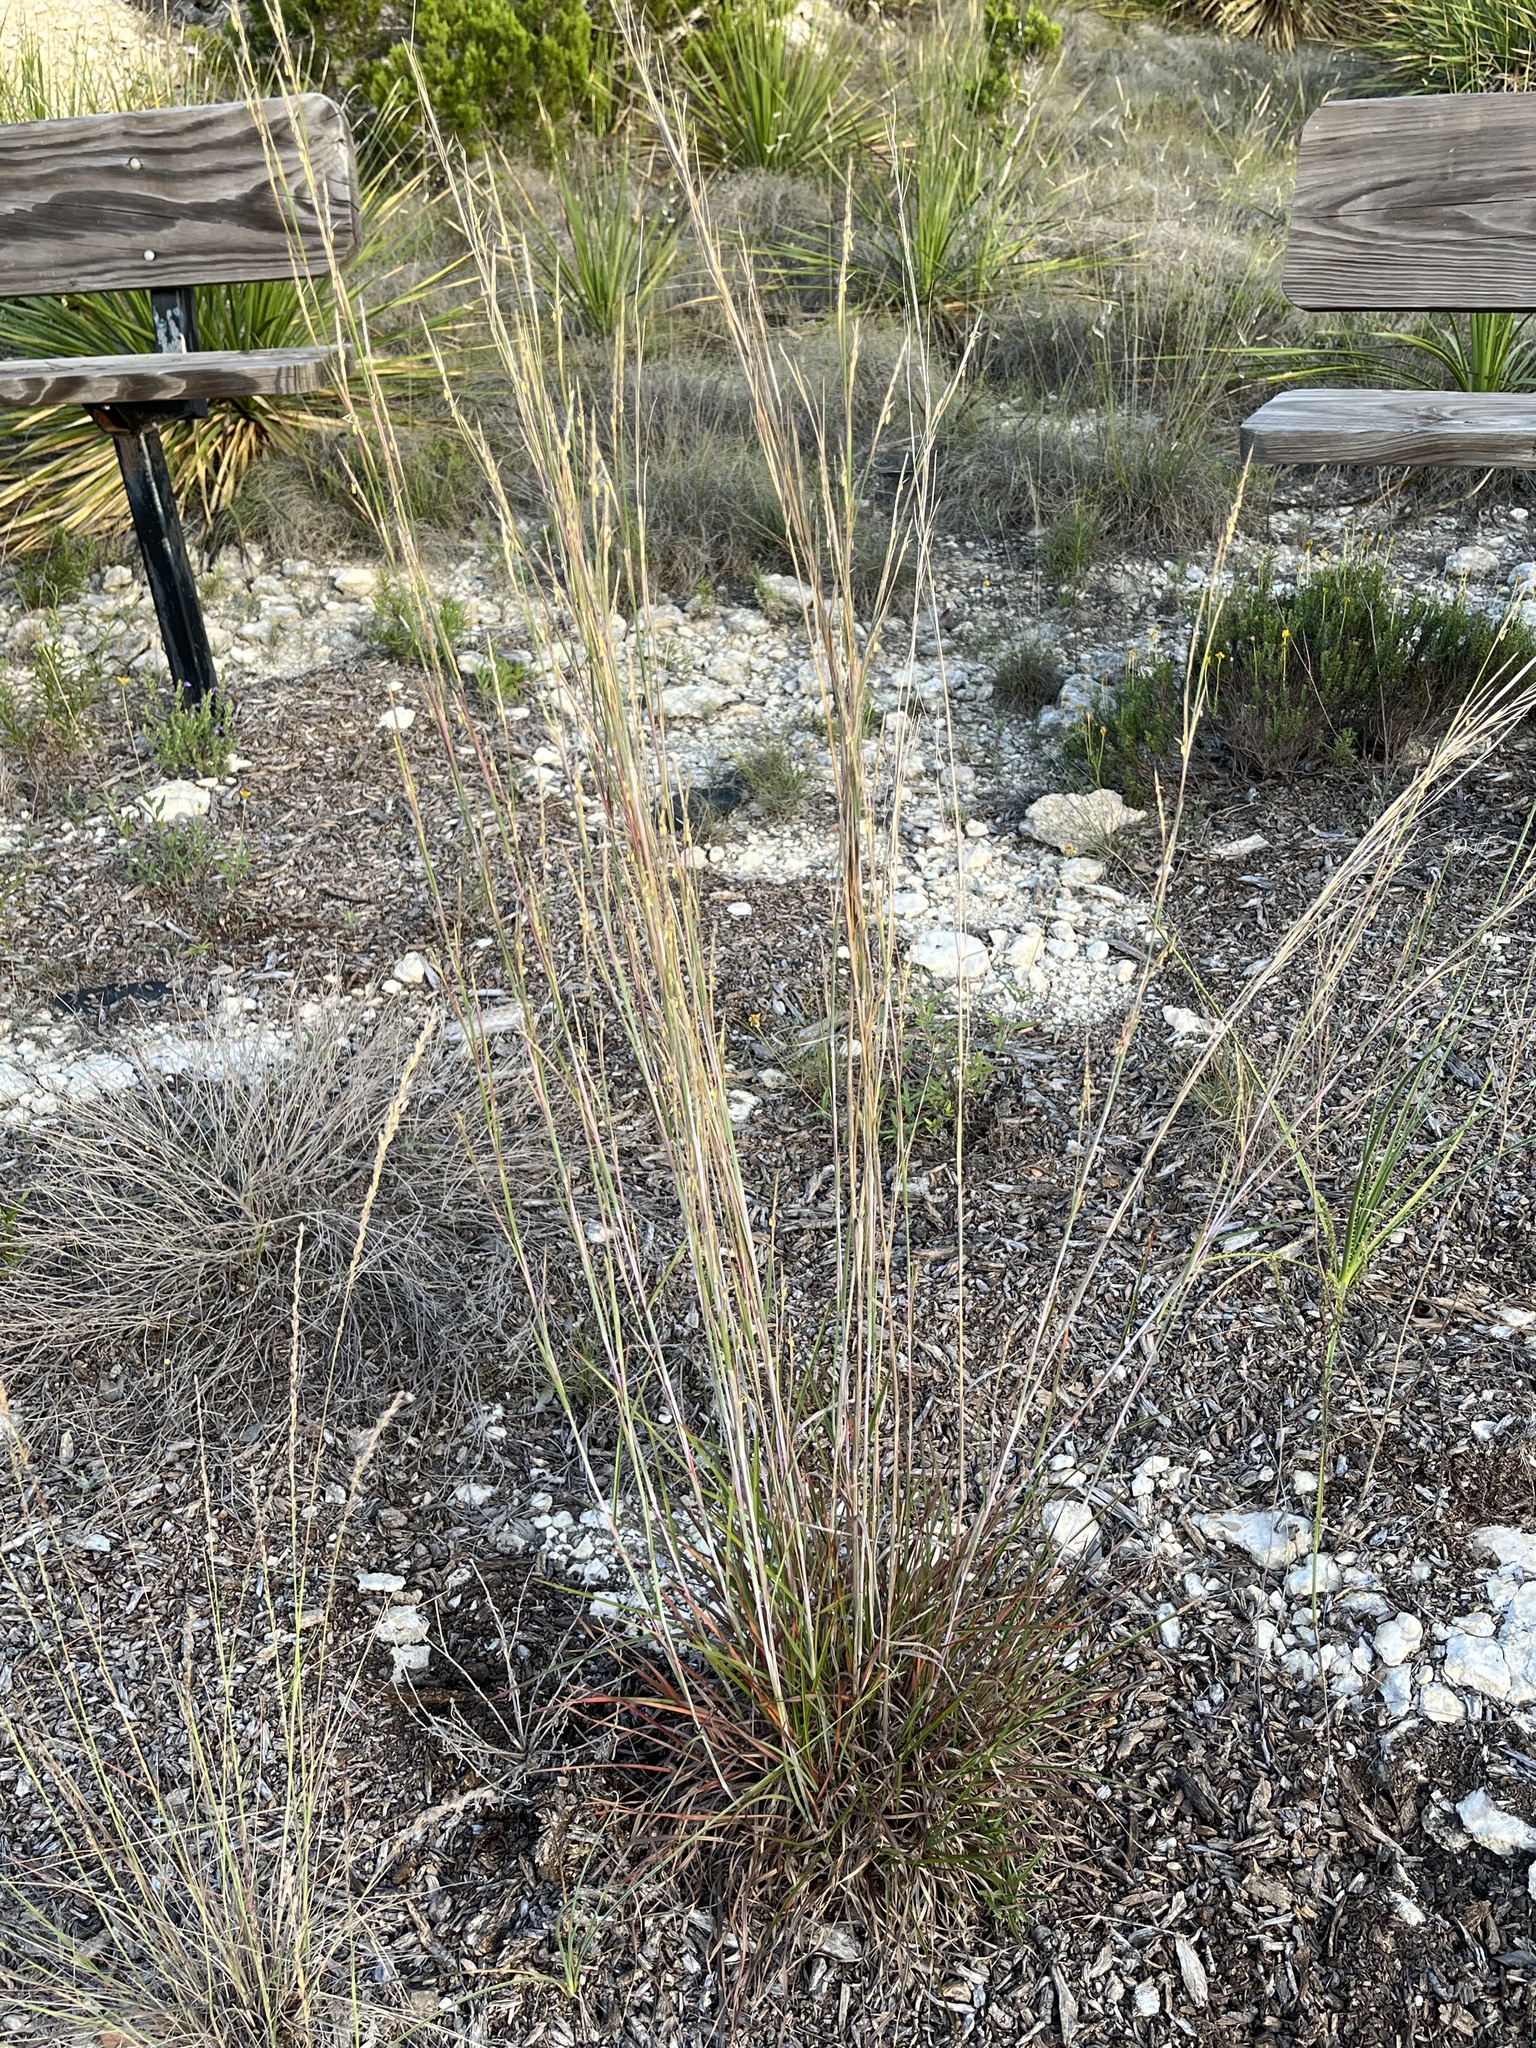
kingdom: Plantae
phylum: Tracheophyta
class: Liliopsida
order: Poales
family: Poaceae
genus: Schizachyrium
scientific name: Schizachyrium scoparium
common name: Little bluestem
